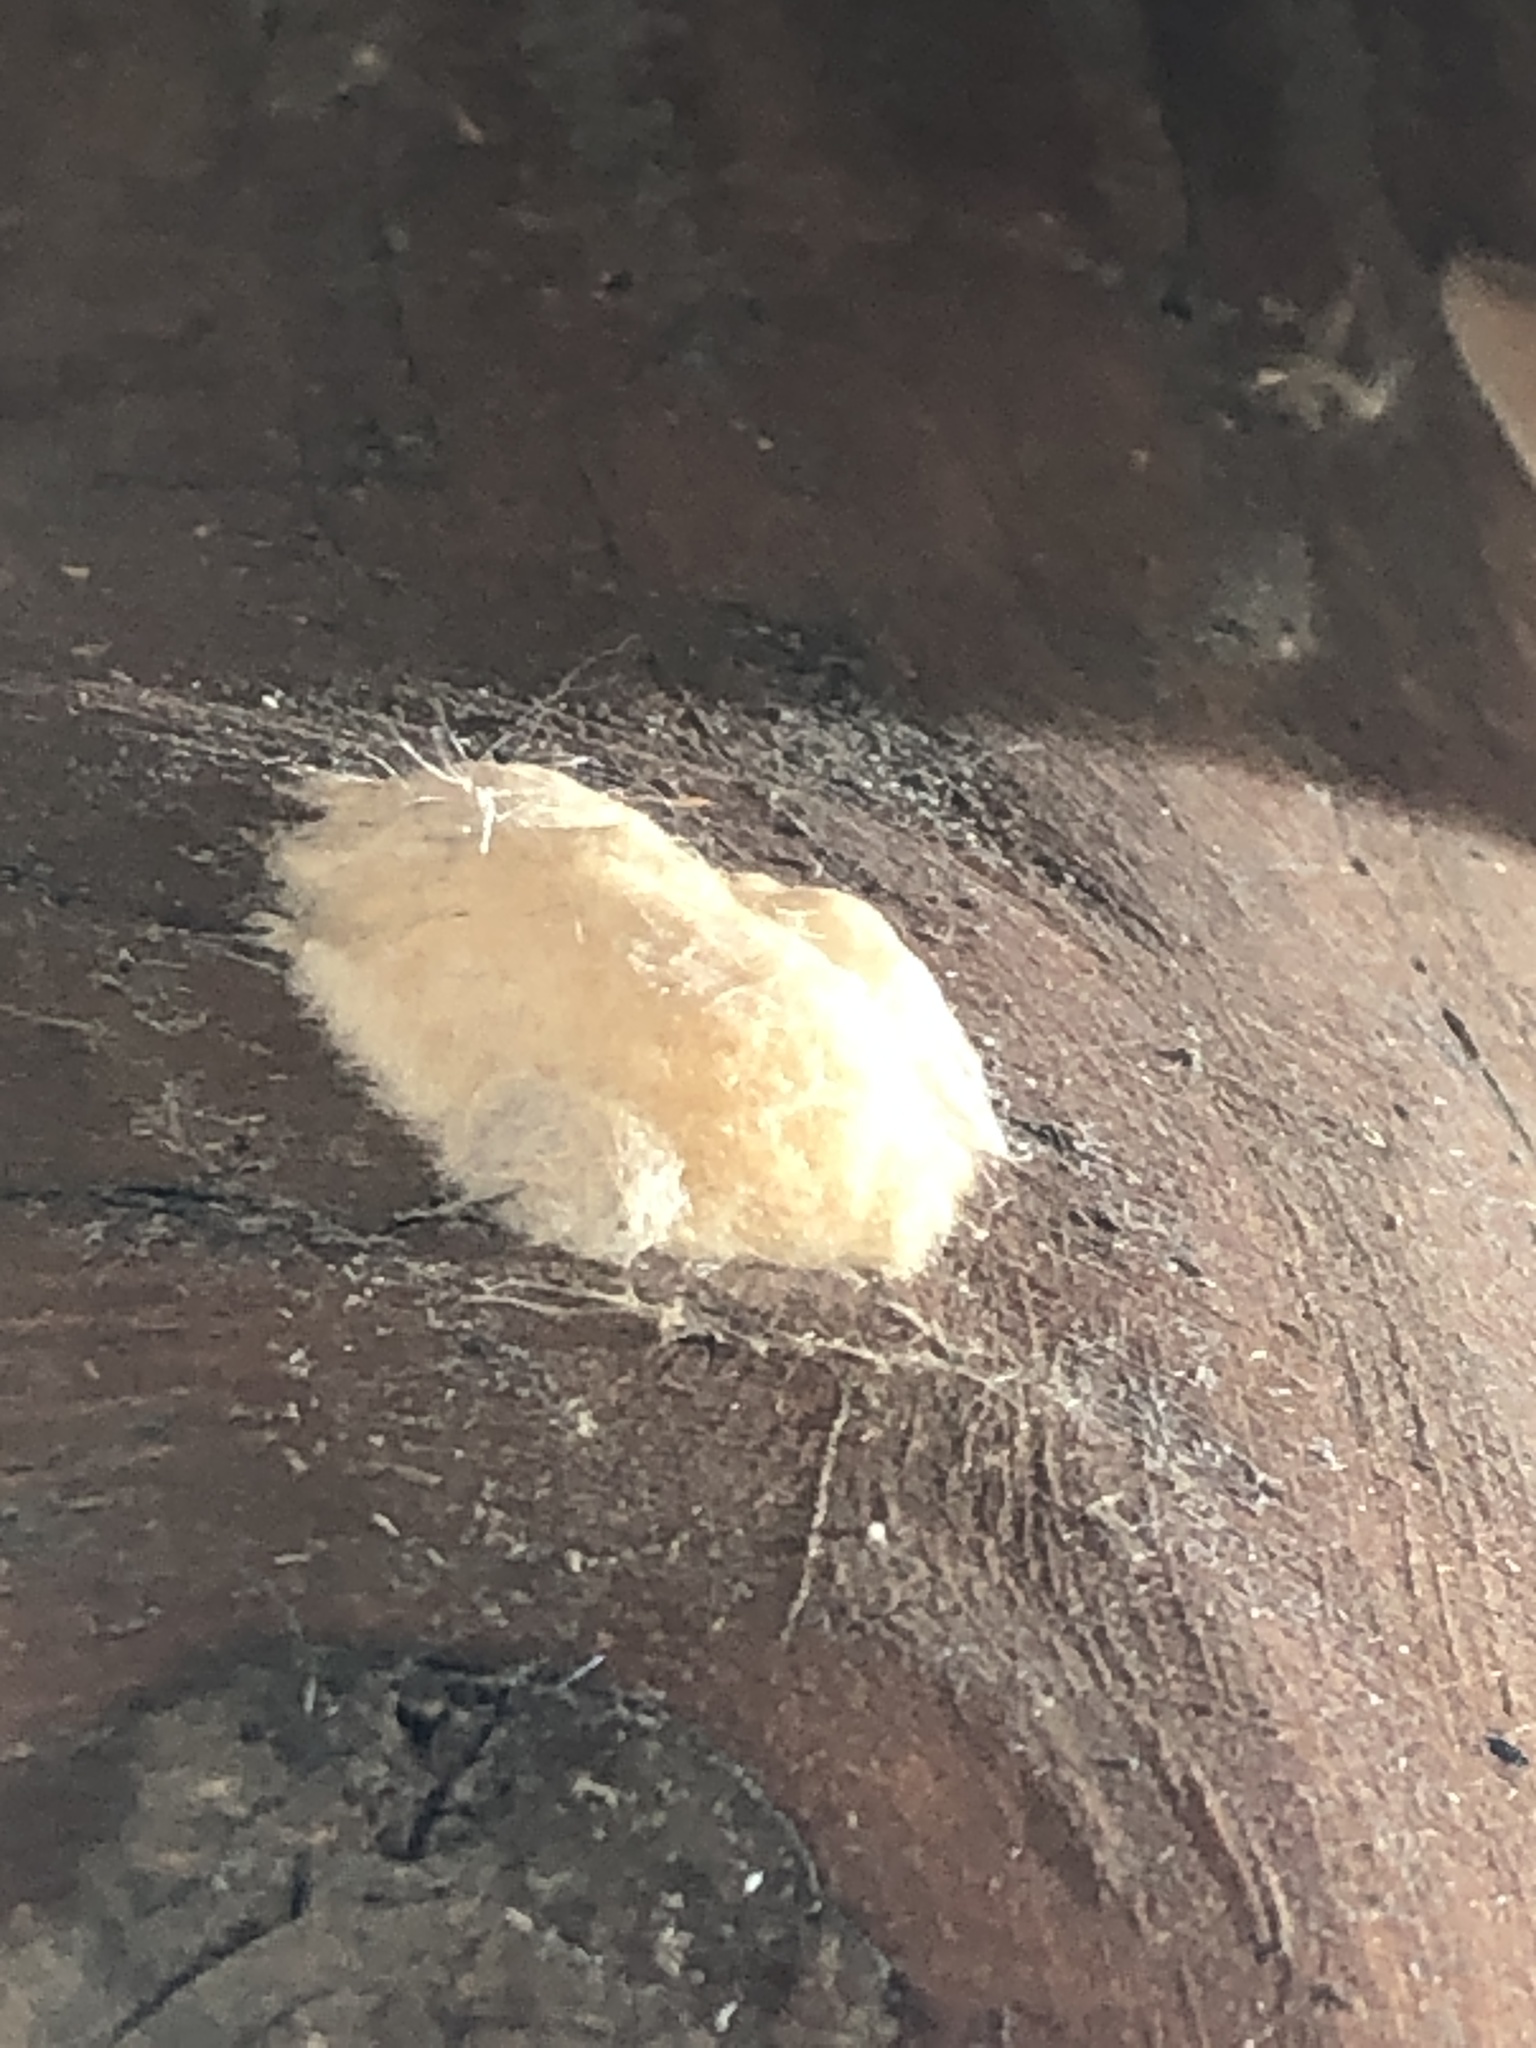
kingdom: Animalia
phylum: Arthropoda
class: Insecta
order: Lepidoptera
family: Erebidae
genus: Lymantria
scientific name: Lymantria dispar
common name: Gypsy moth
